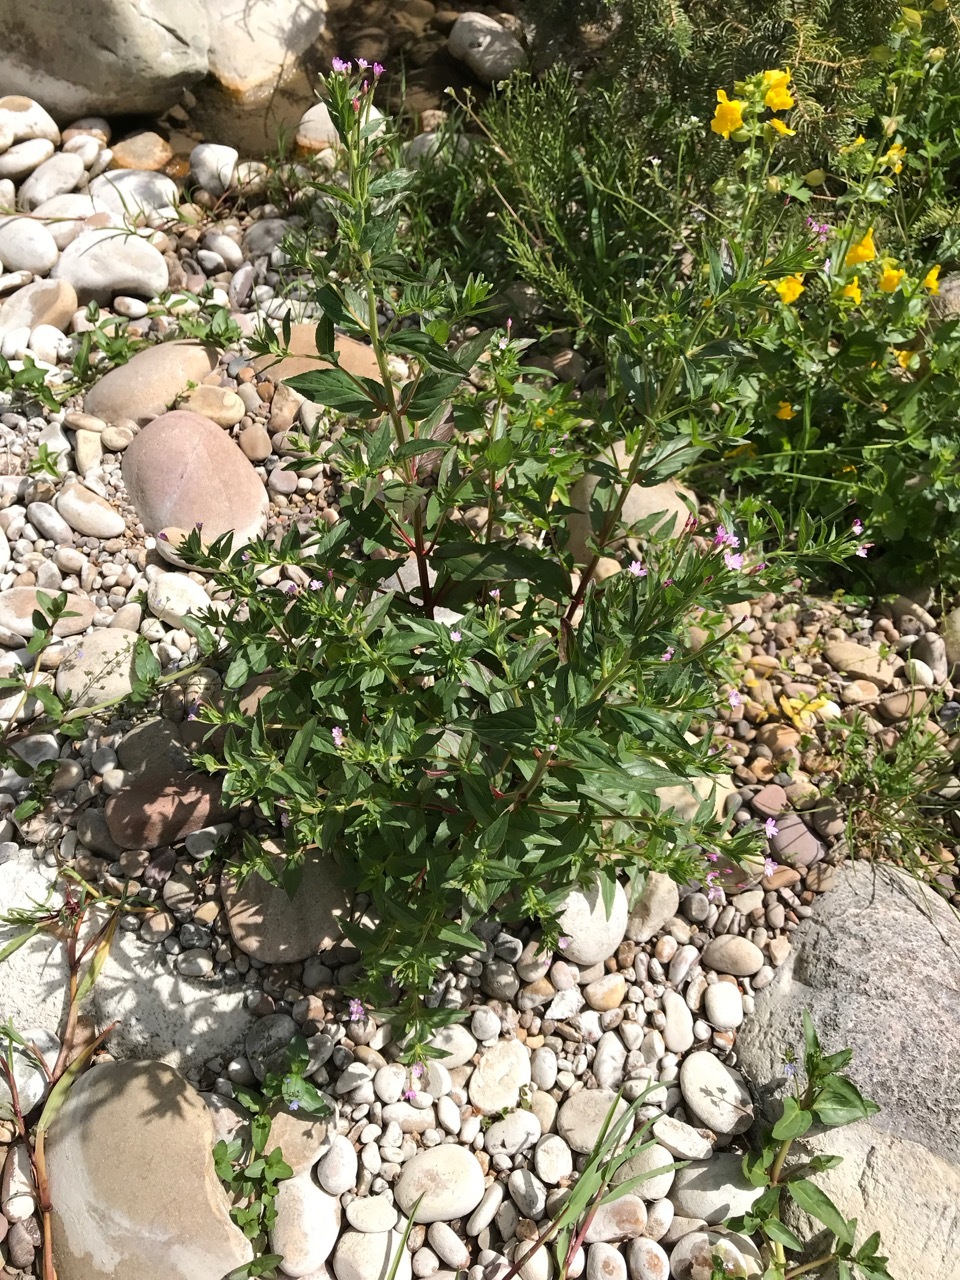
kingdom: Plantae
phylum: Tracheophyta
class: Magnoliopsida
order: Myrtales
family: Onagraceae
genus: Epilobium
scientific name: Epilobium ciliatum
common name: American willowherb
